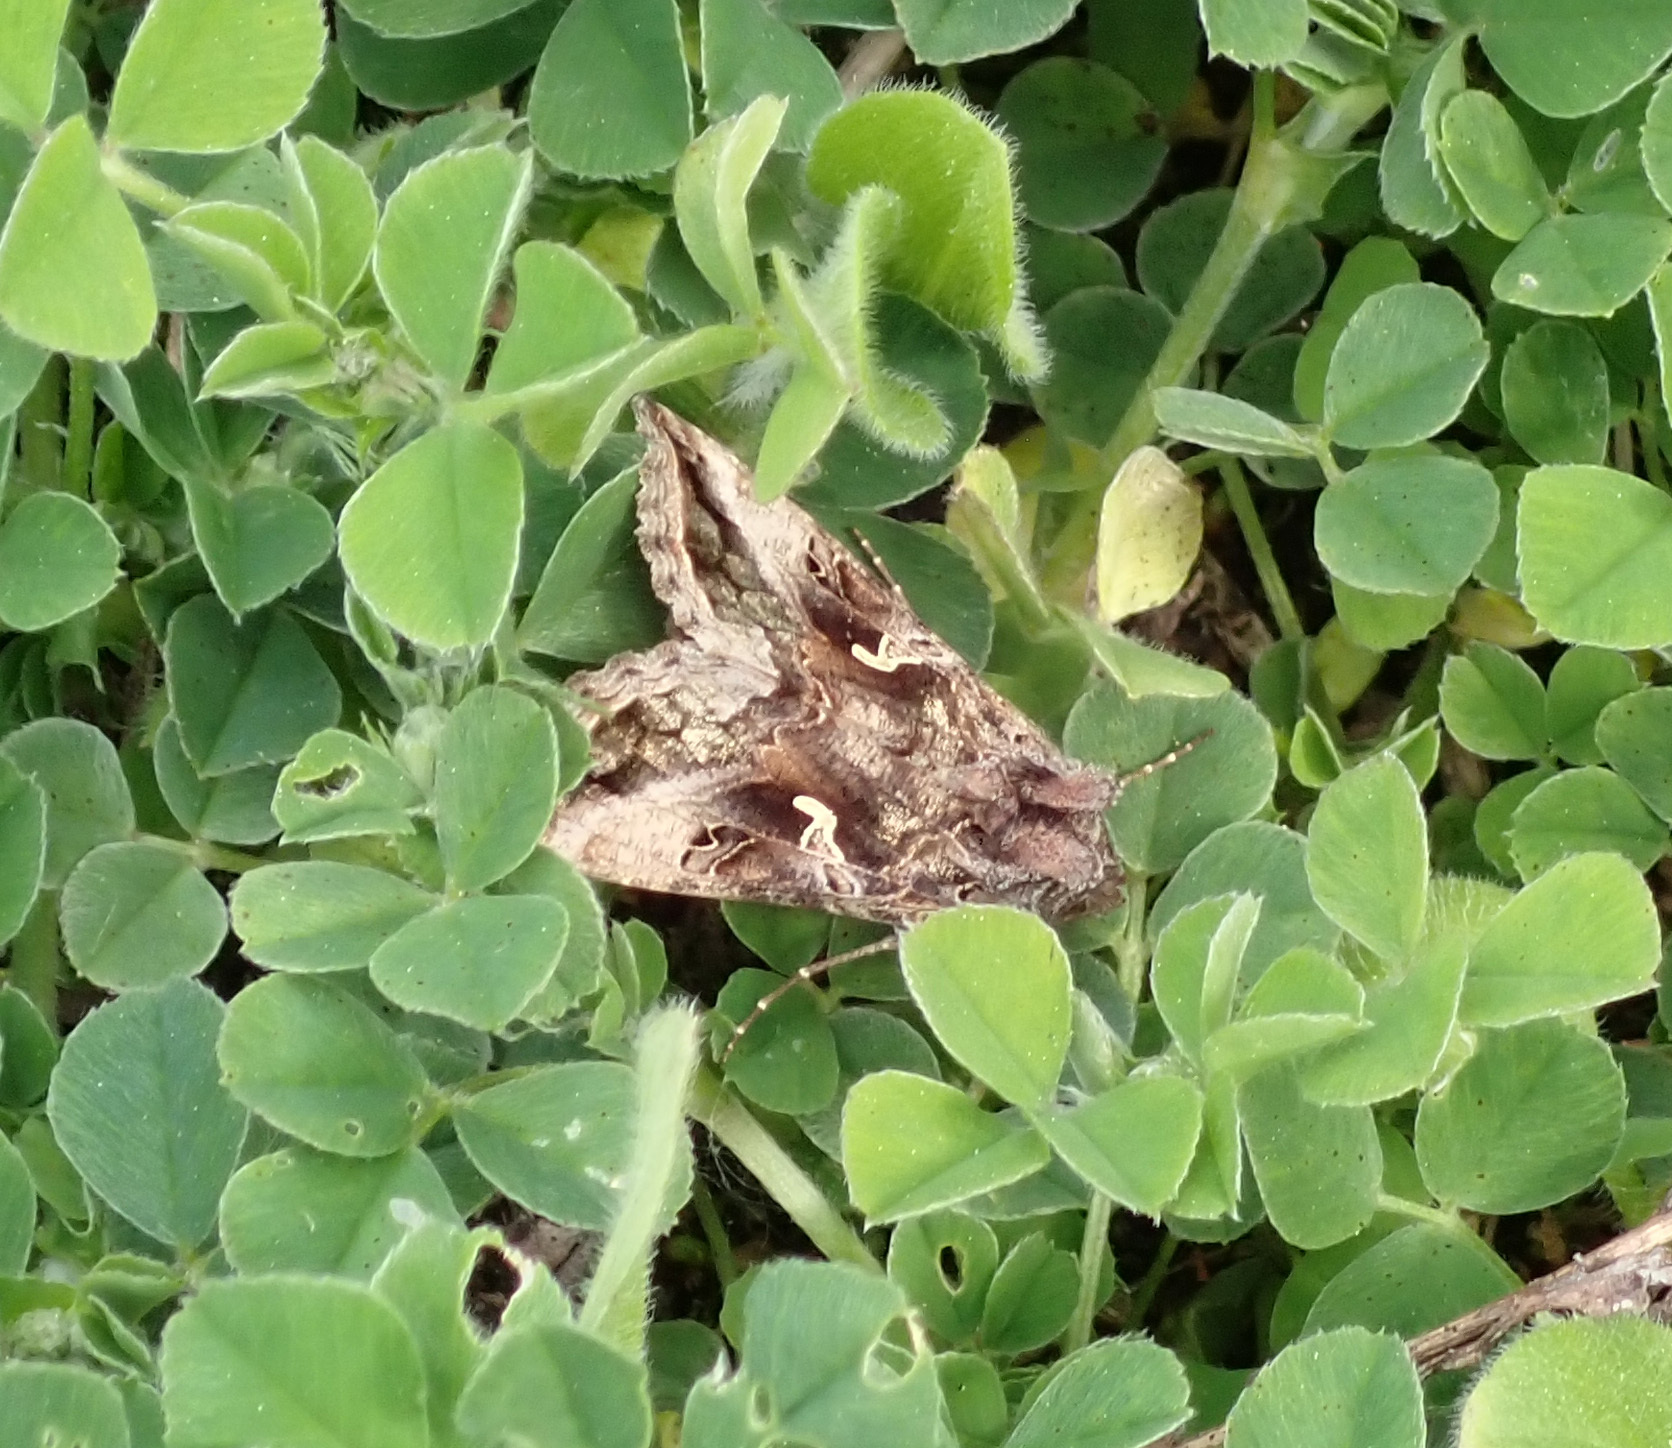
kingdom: Animalia
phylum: Arthropoda
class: Insecta
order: Lepidoptera
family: Noctuidae
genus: Autographa
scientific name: Autographa gamma
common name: Silver y
